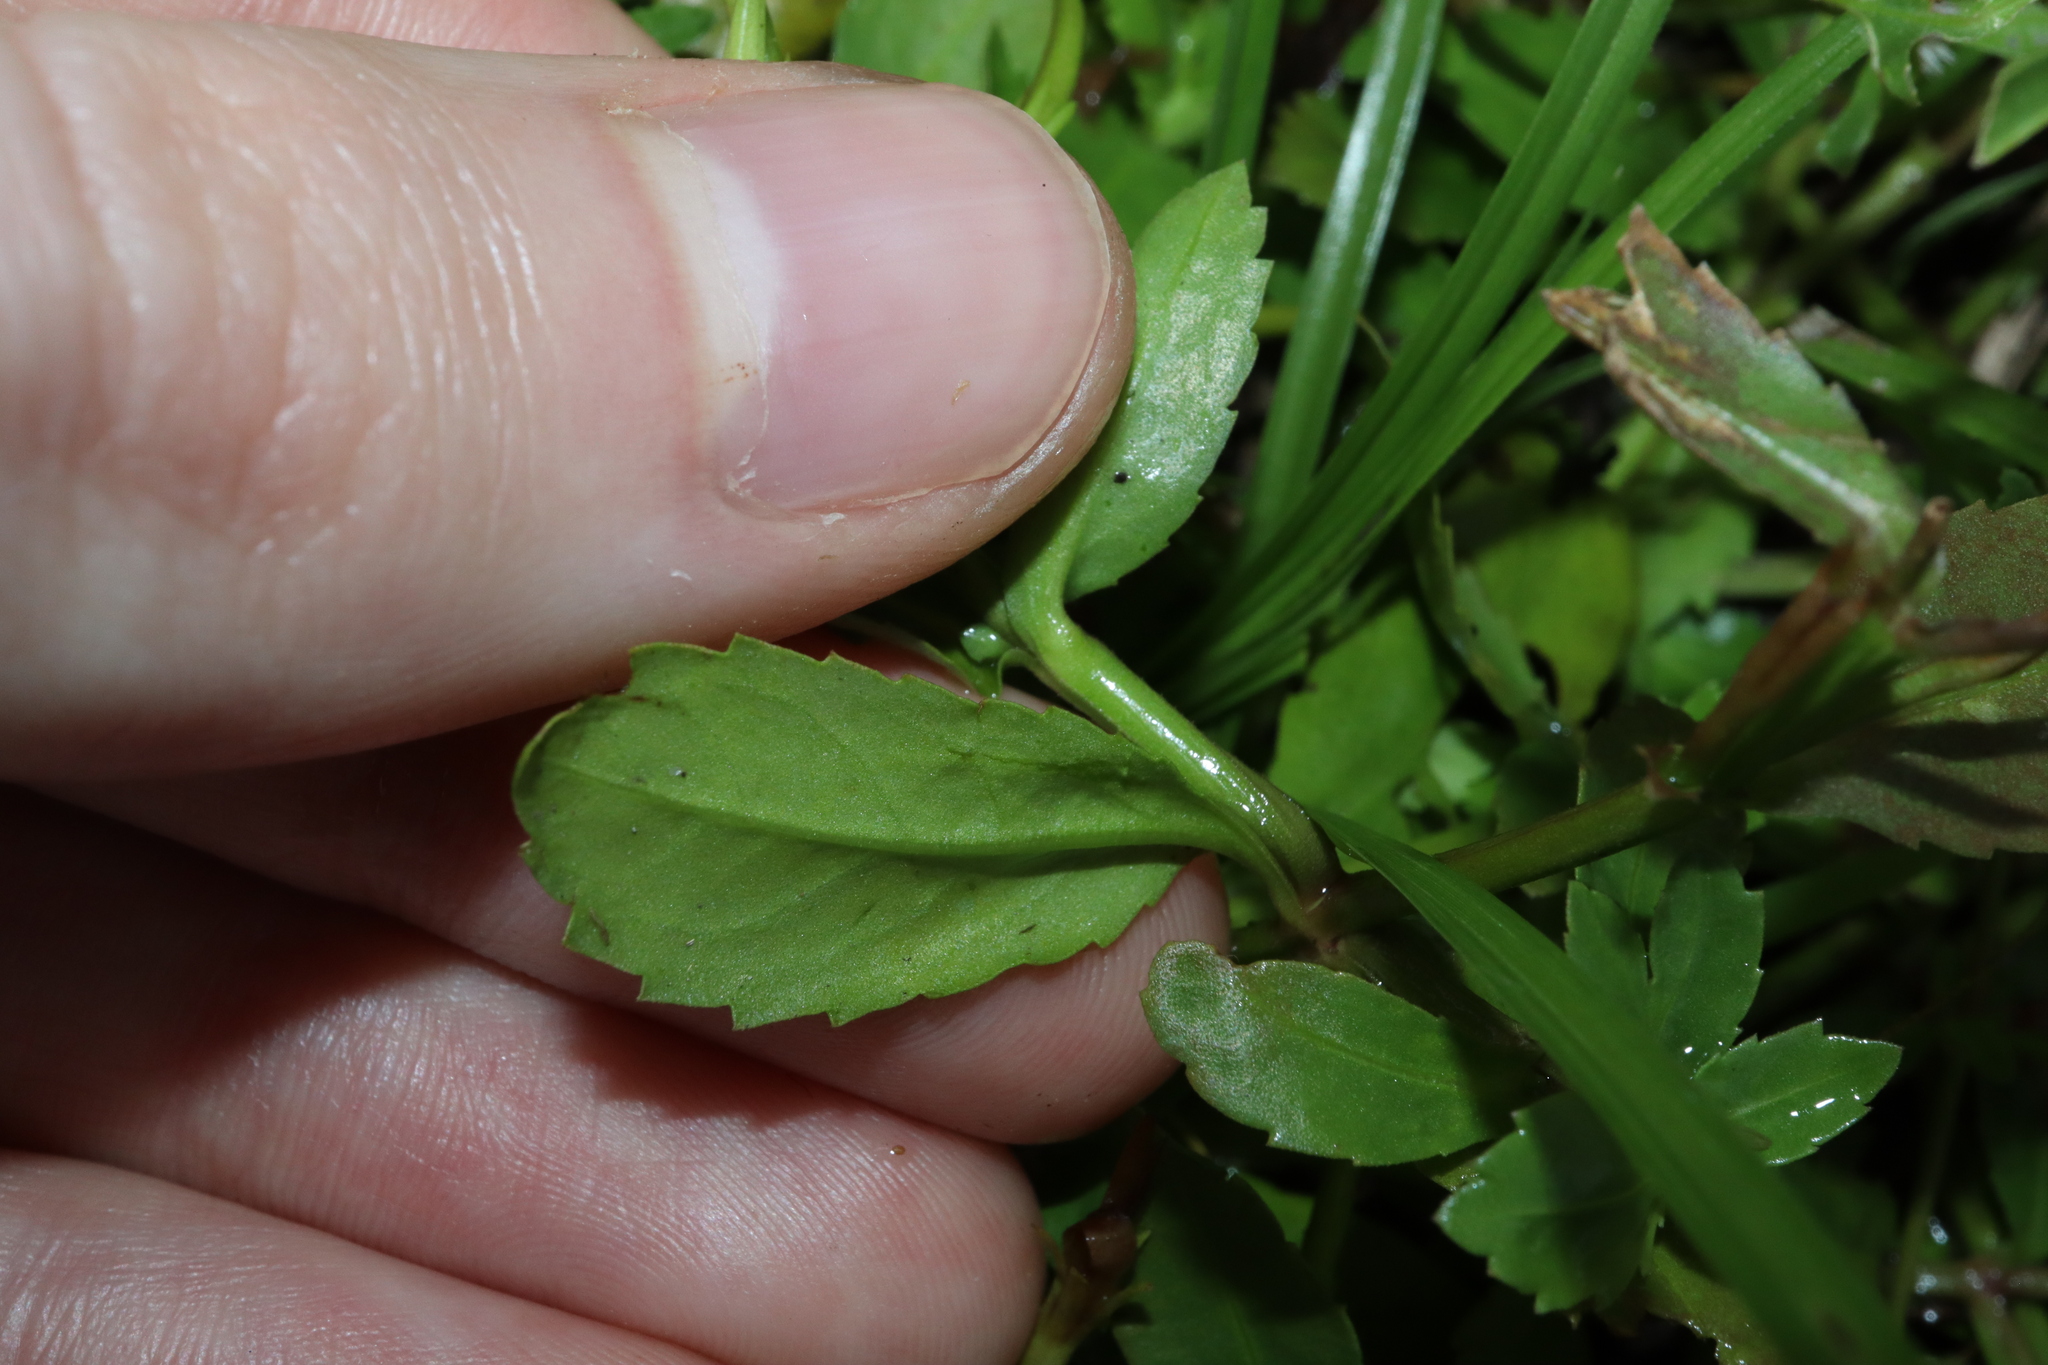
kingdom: Plantae
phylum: Tracheophyta
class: Magnoliopsida
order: Lamiales
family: Linderniaceae
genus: Bonnaya
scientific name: Bonnaya antipoda
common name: Sparrow false pimpernel
